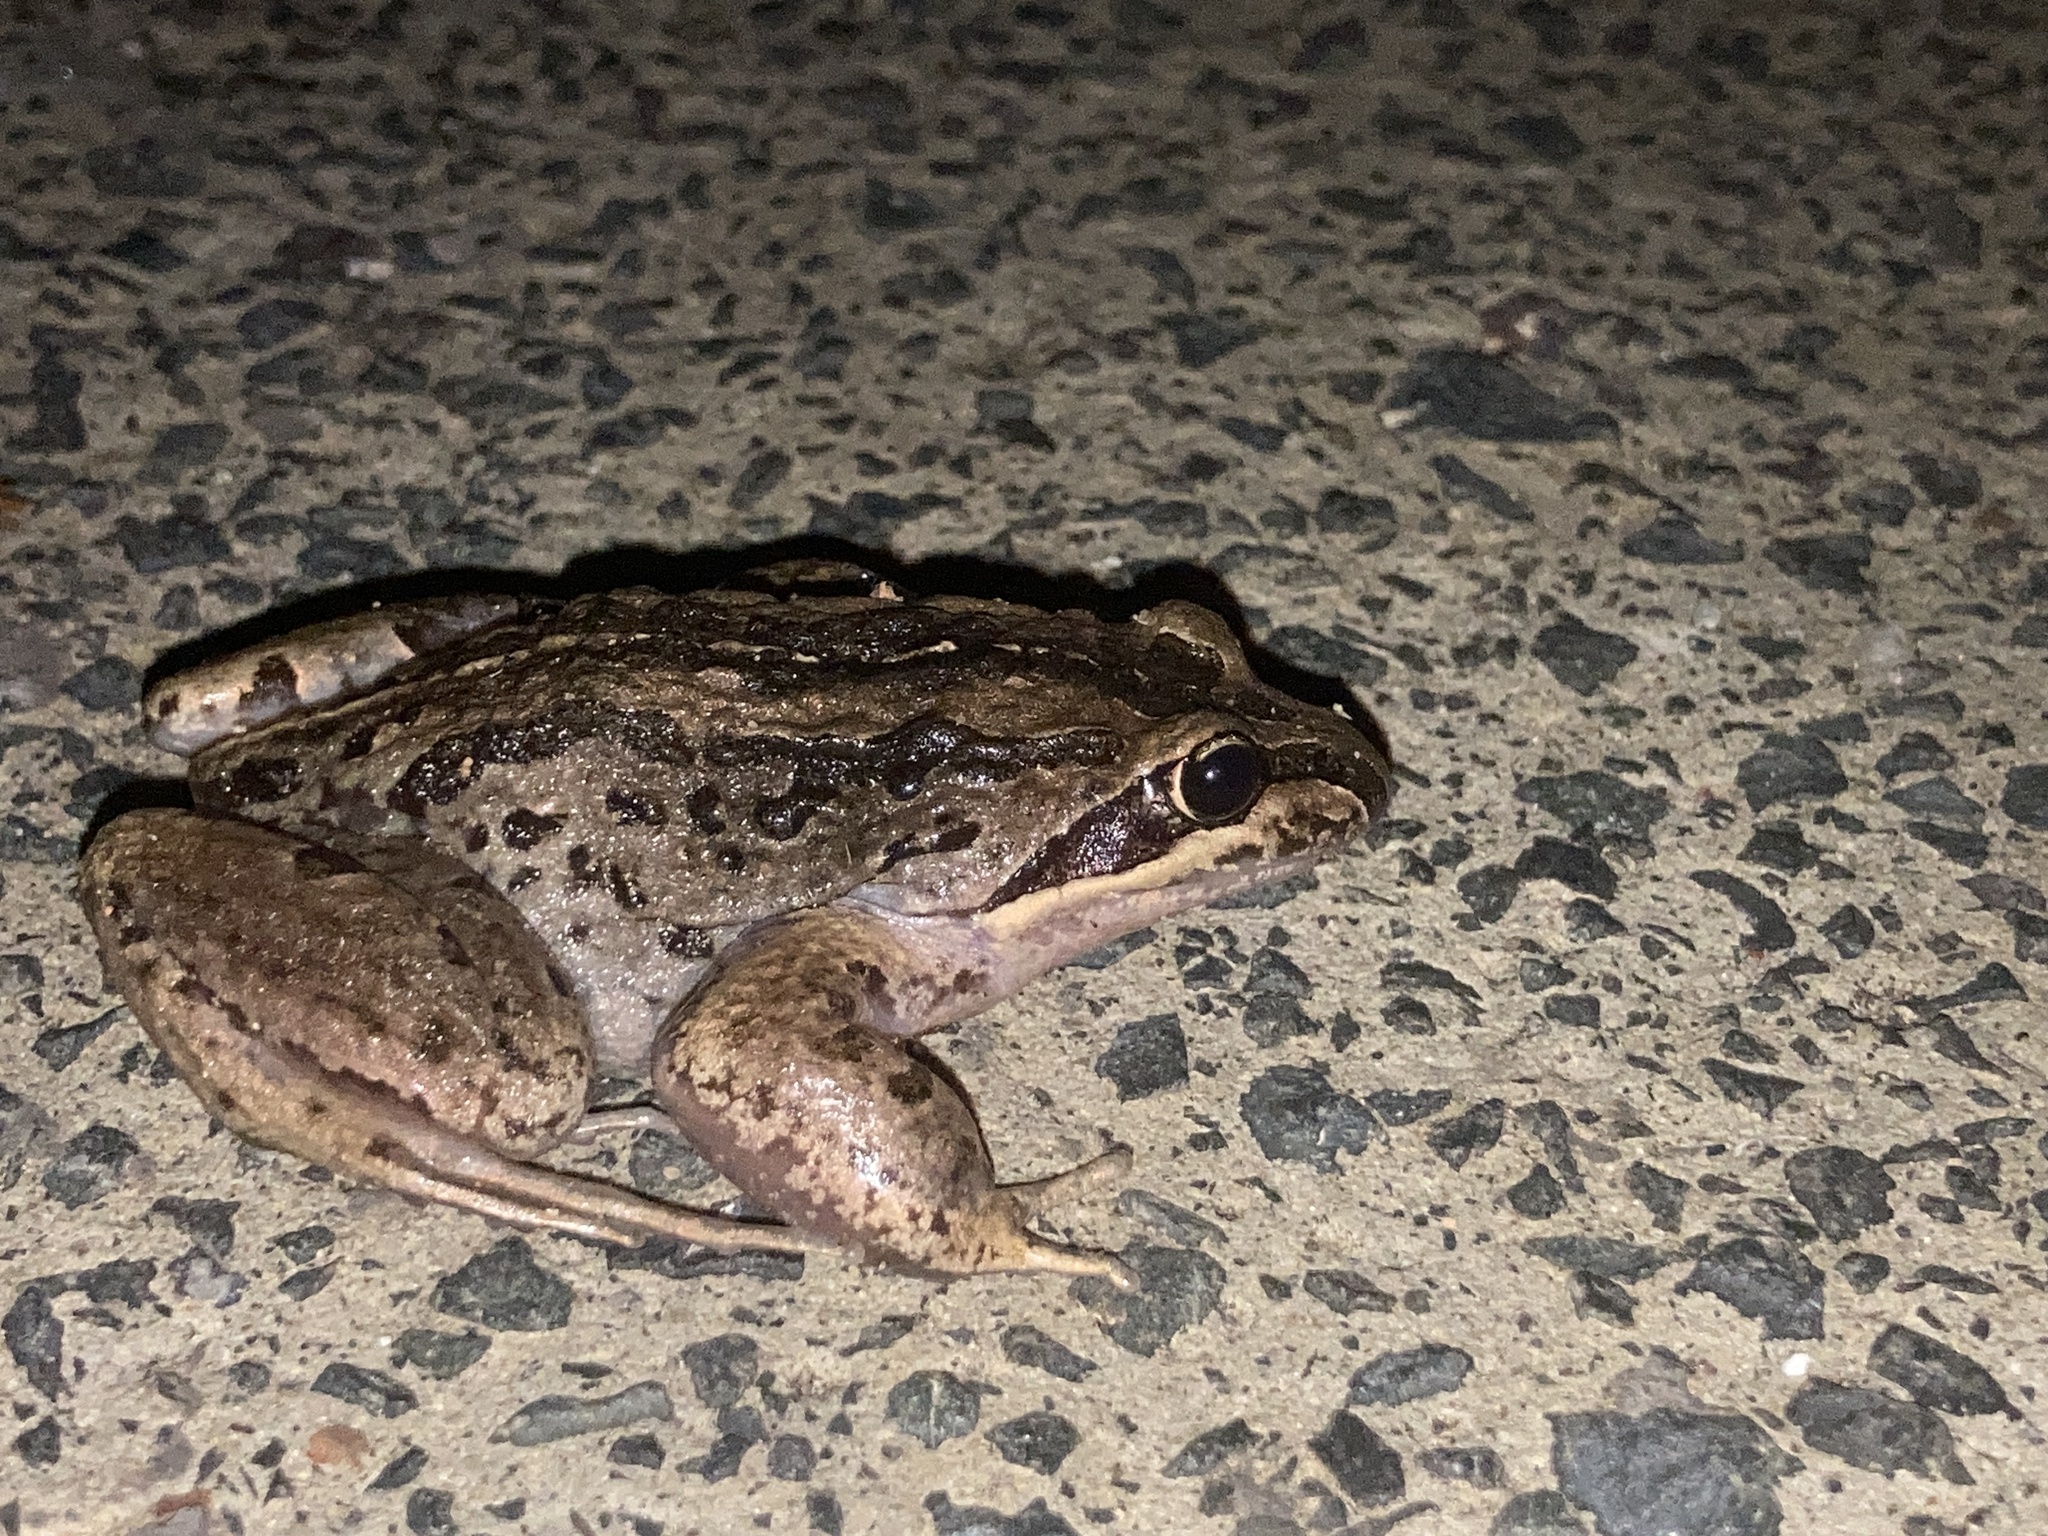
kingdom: Animalia
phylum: Chordata
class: Amphibia
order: Anura
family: Limnodynastidae
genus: Limnodynastes
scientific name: Limnodynastes peronii
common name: Brown frog
